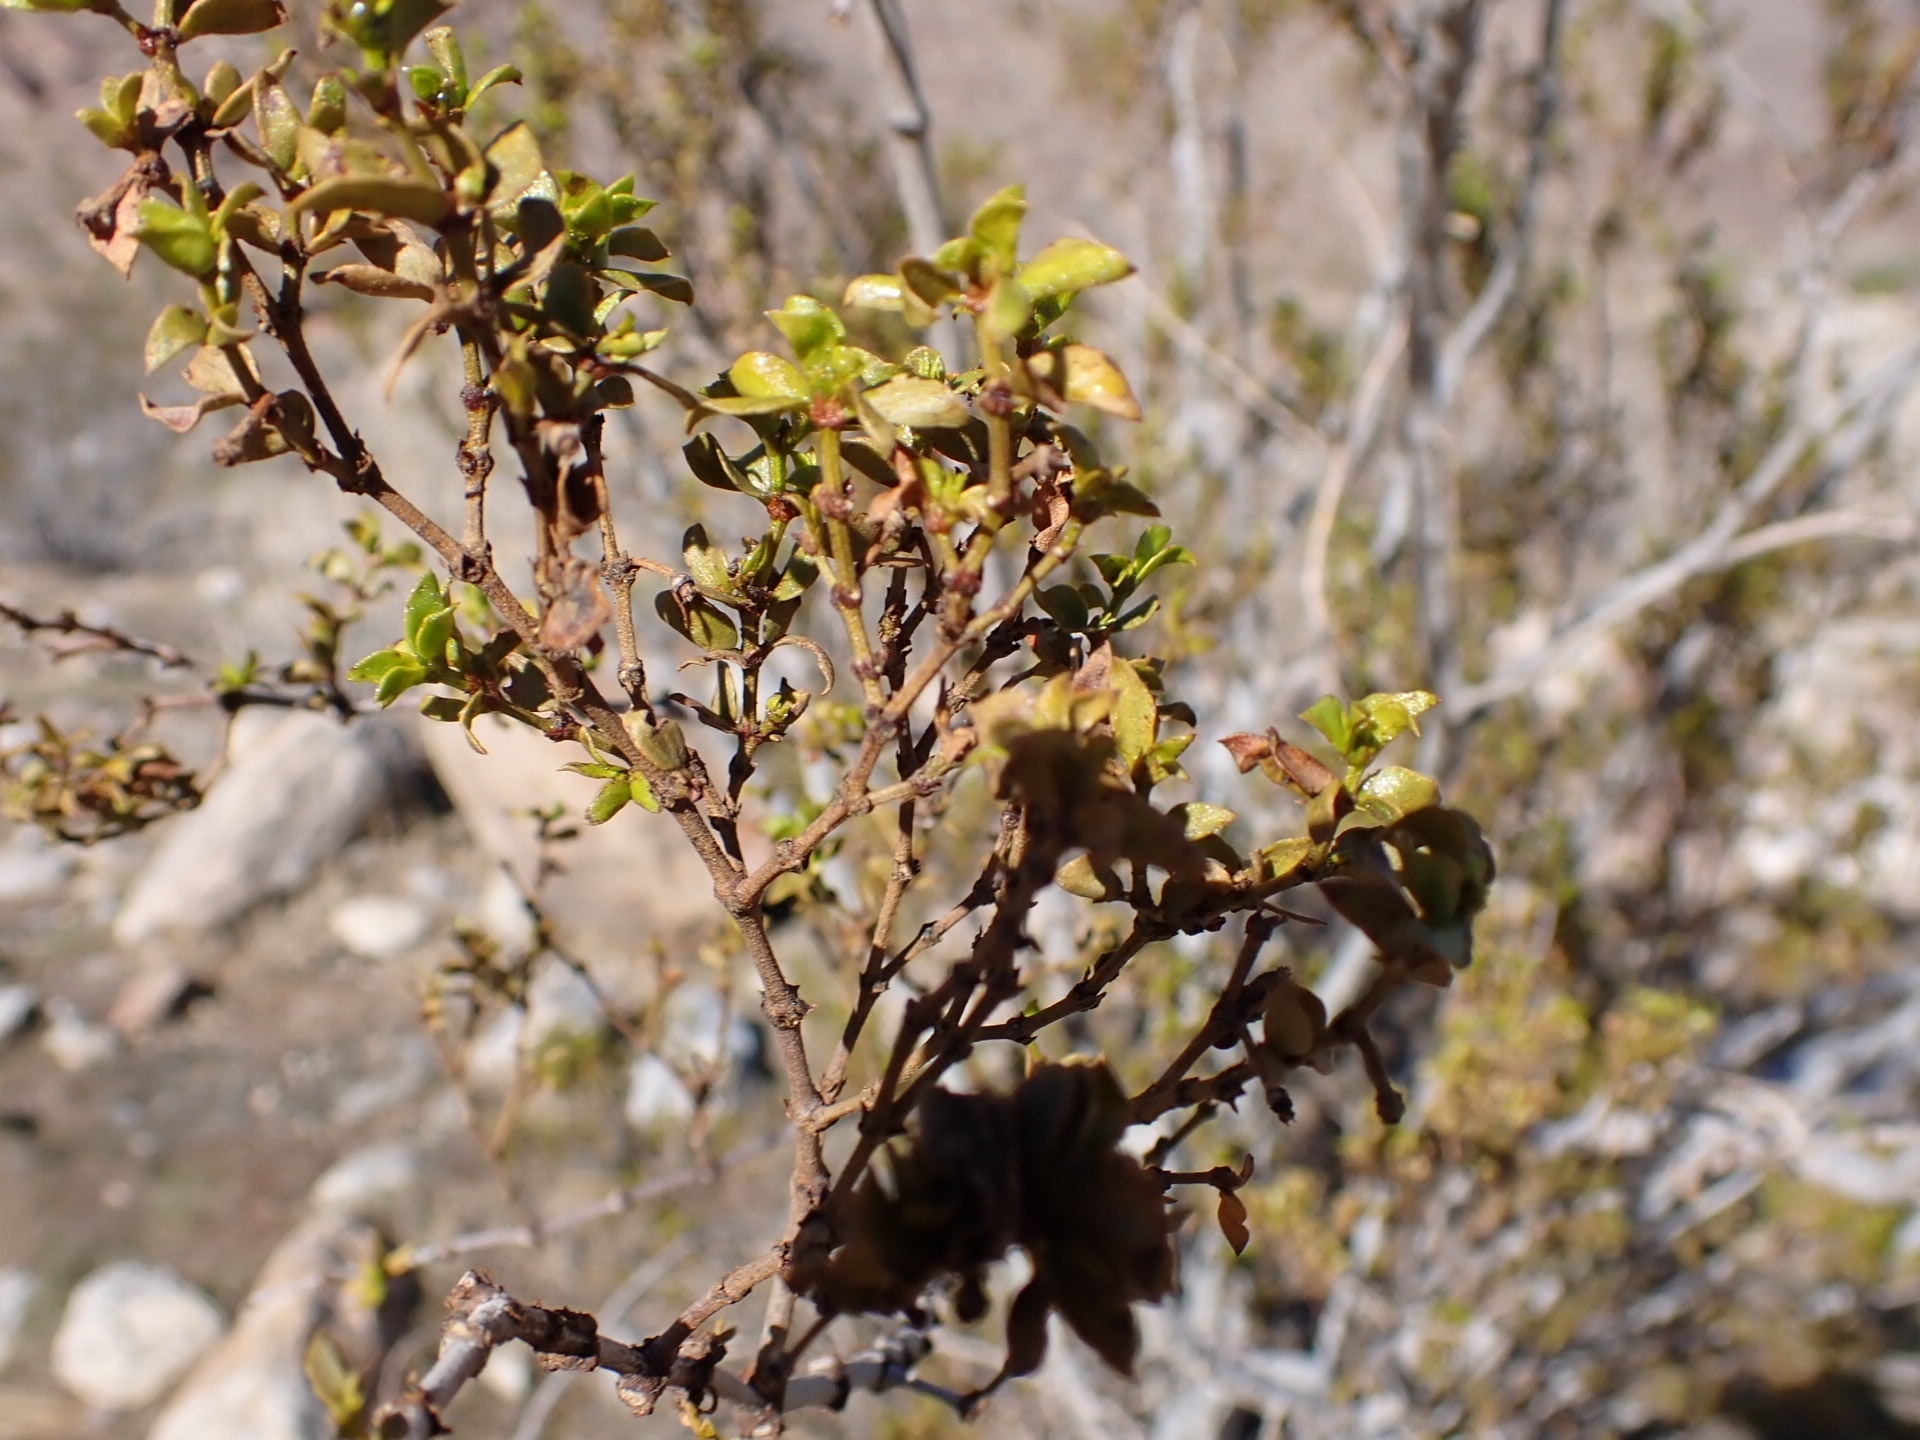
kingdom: Plantae
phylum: Tracheophyta
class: Magnoliopsida
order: Zygophyllales
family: Zygophyllaceae
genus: Larrea
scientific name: Larrea tridentata
